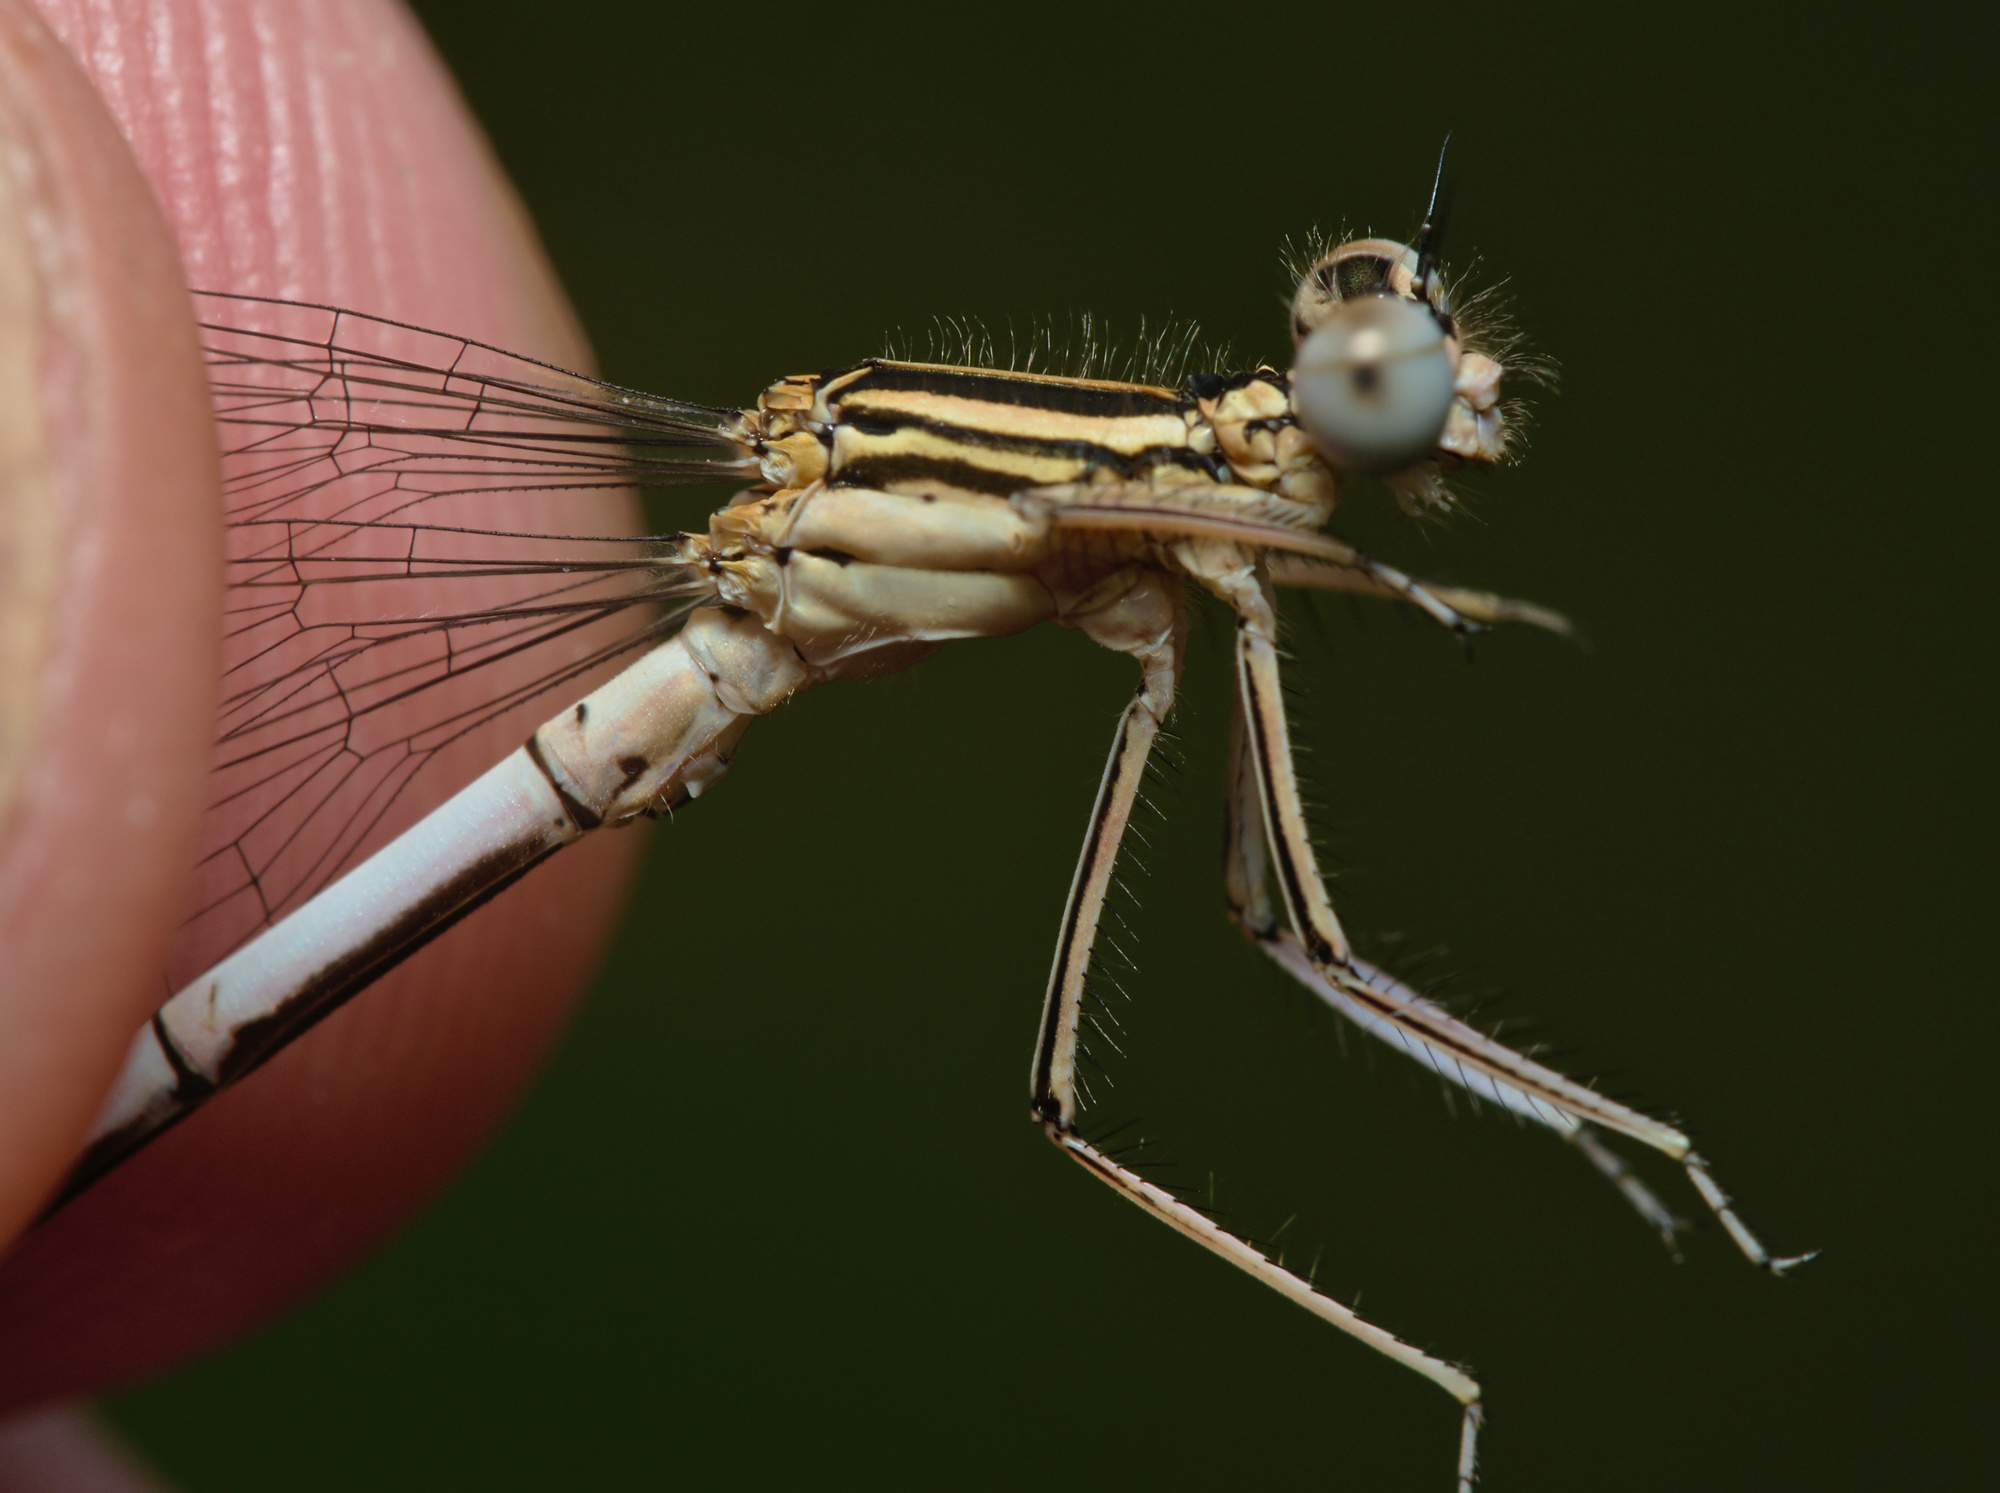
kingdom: Animalia
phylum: Arthropoda
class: Insecta
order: Odonata
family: Platycnemididae
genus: Platycnemis
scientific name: Platycnemis pennipes
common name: White-legged damselfly
